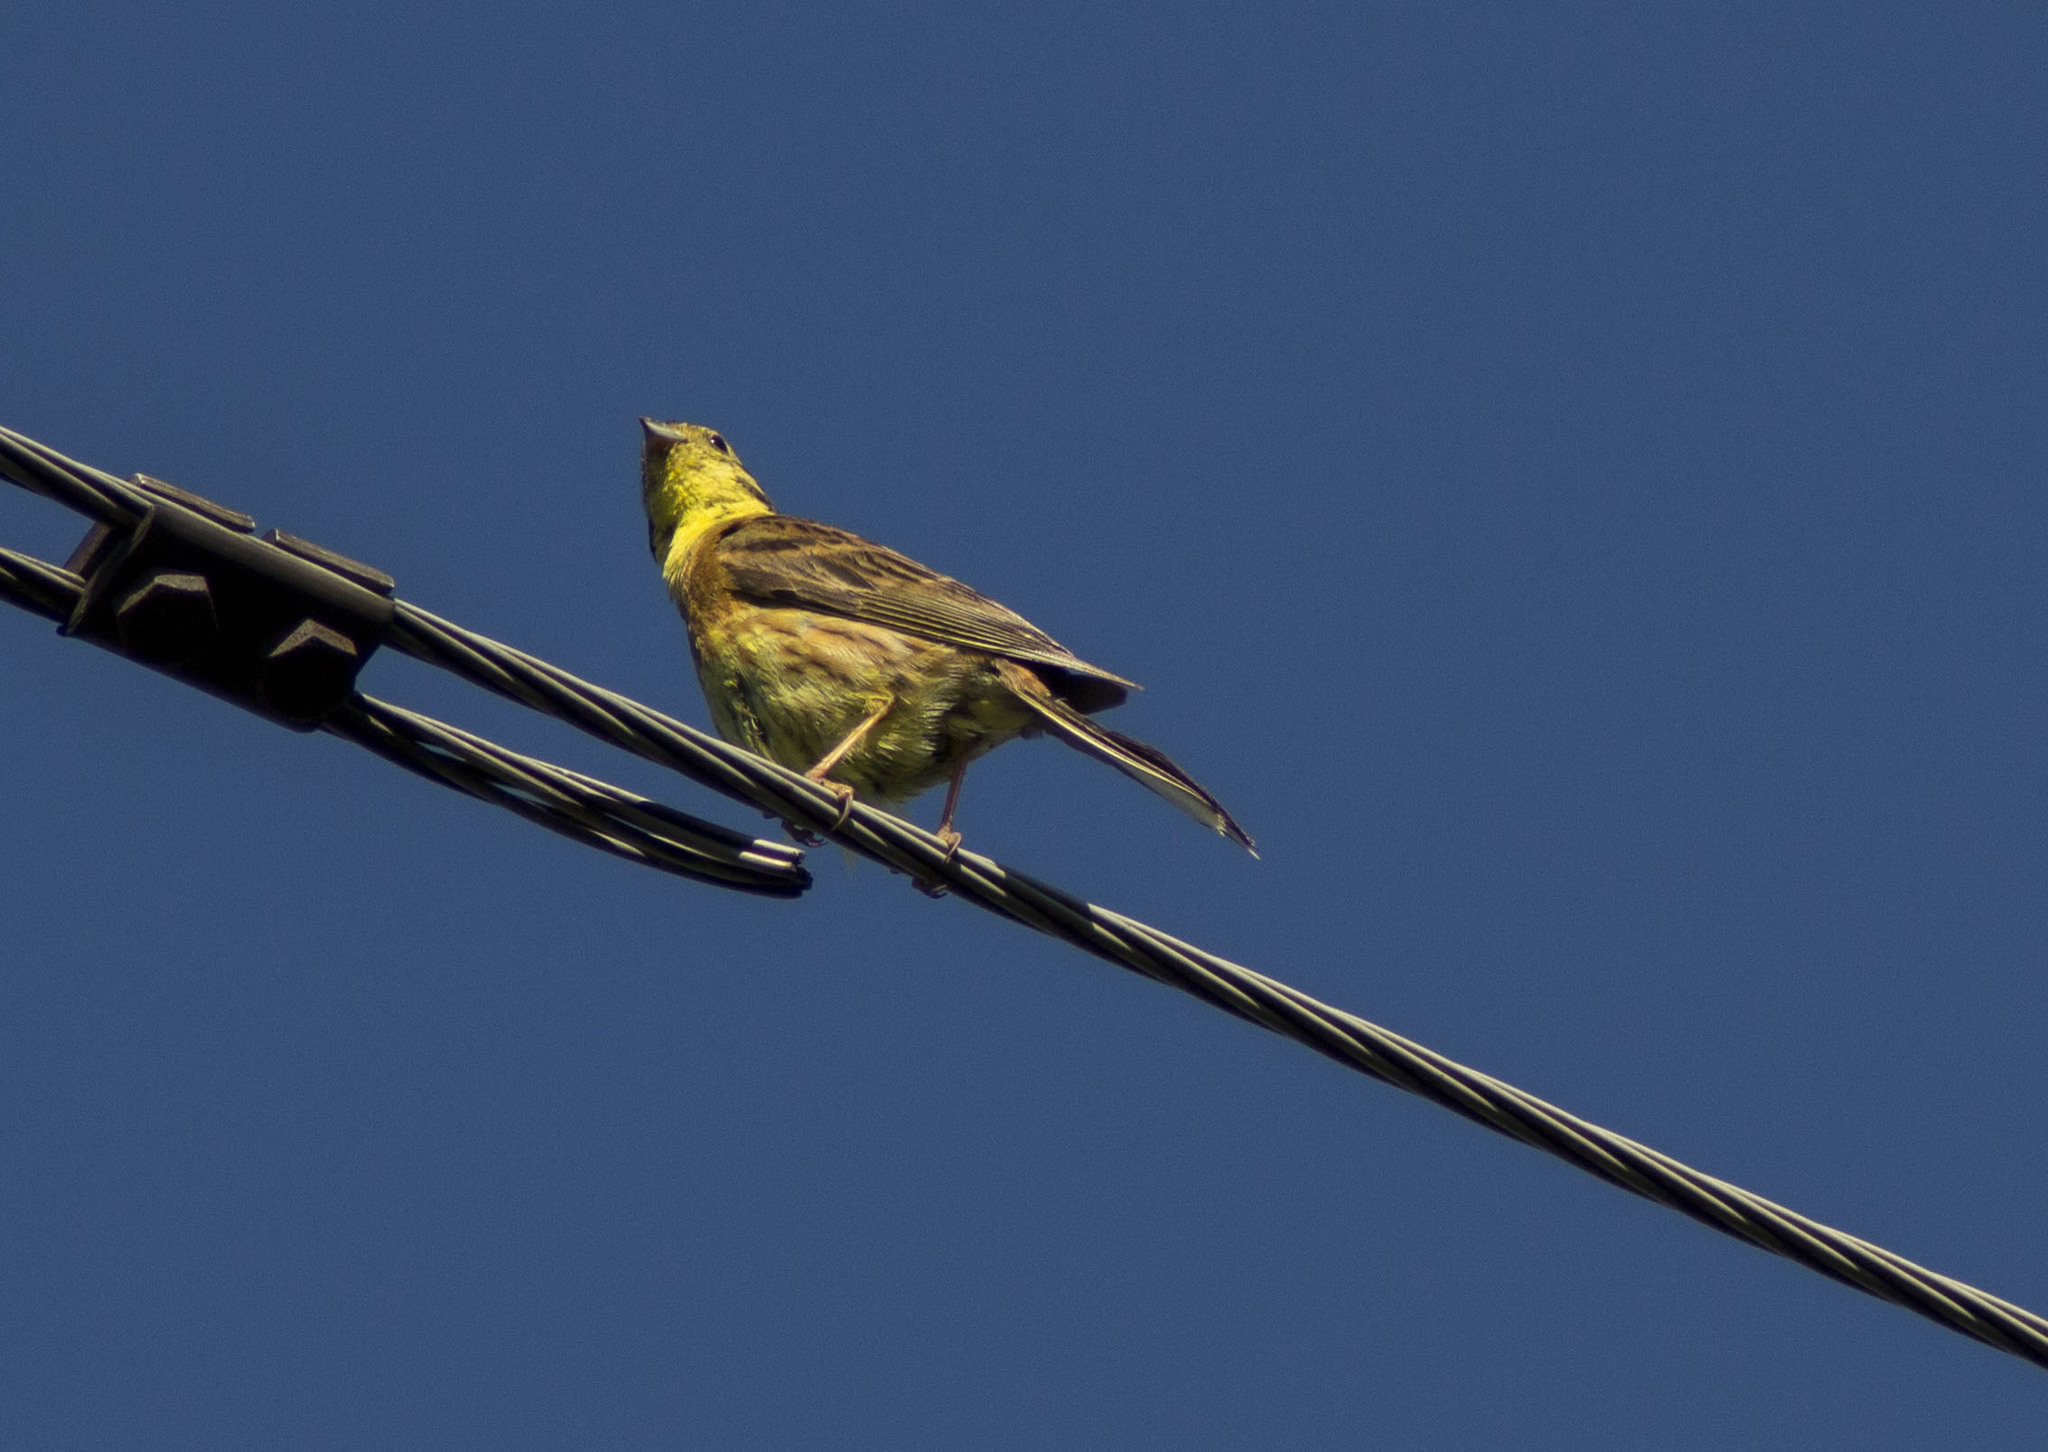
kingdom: Animalia
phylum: Chordata
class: Aves
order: Passeriformes
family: Emberizidae
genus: Emberiza
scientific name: Emberiza citrinella
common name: Yellowhammer
